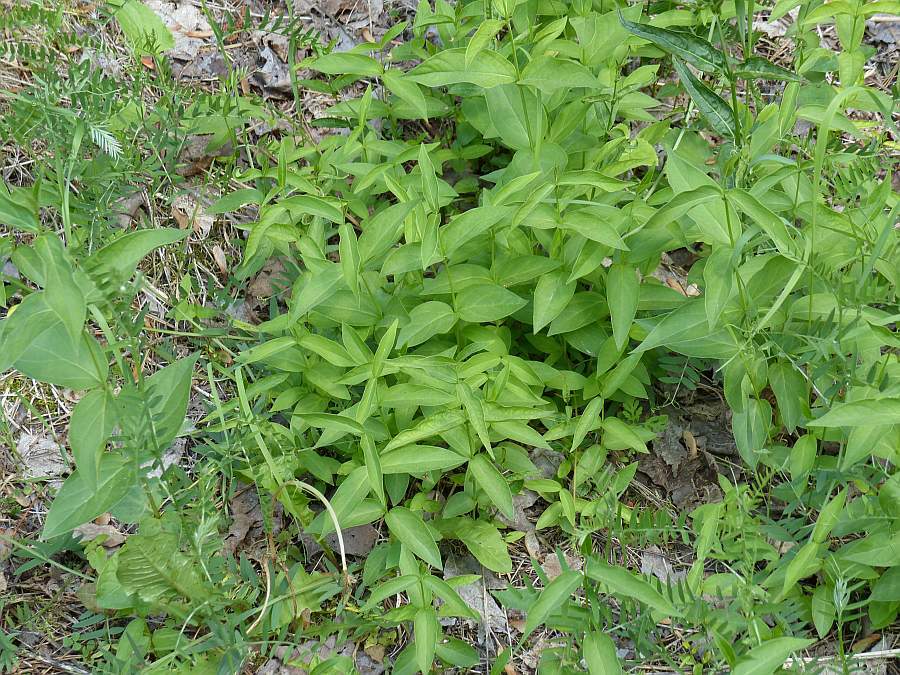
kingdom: Plantae
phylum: Tracheophyta
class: Magnoliopsida
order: Gentianales
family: Apocynaceae
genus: Vincetoxicum
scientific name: Vincetoxicum rossicum
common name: Dog-strangling vine
